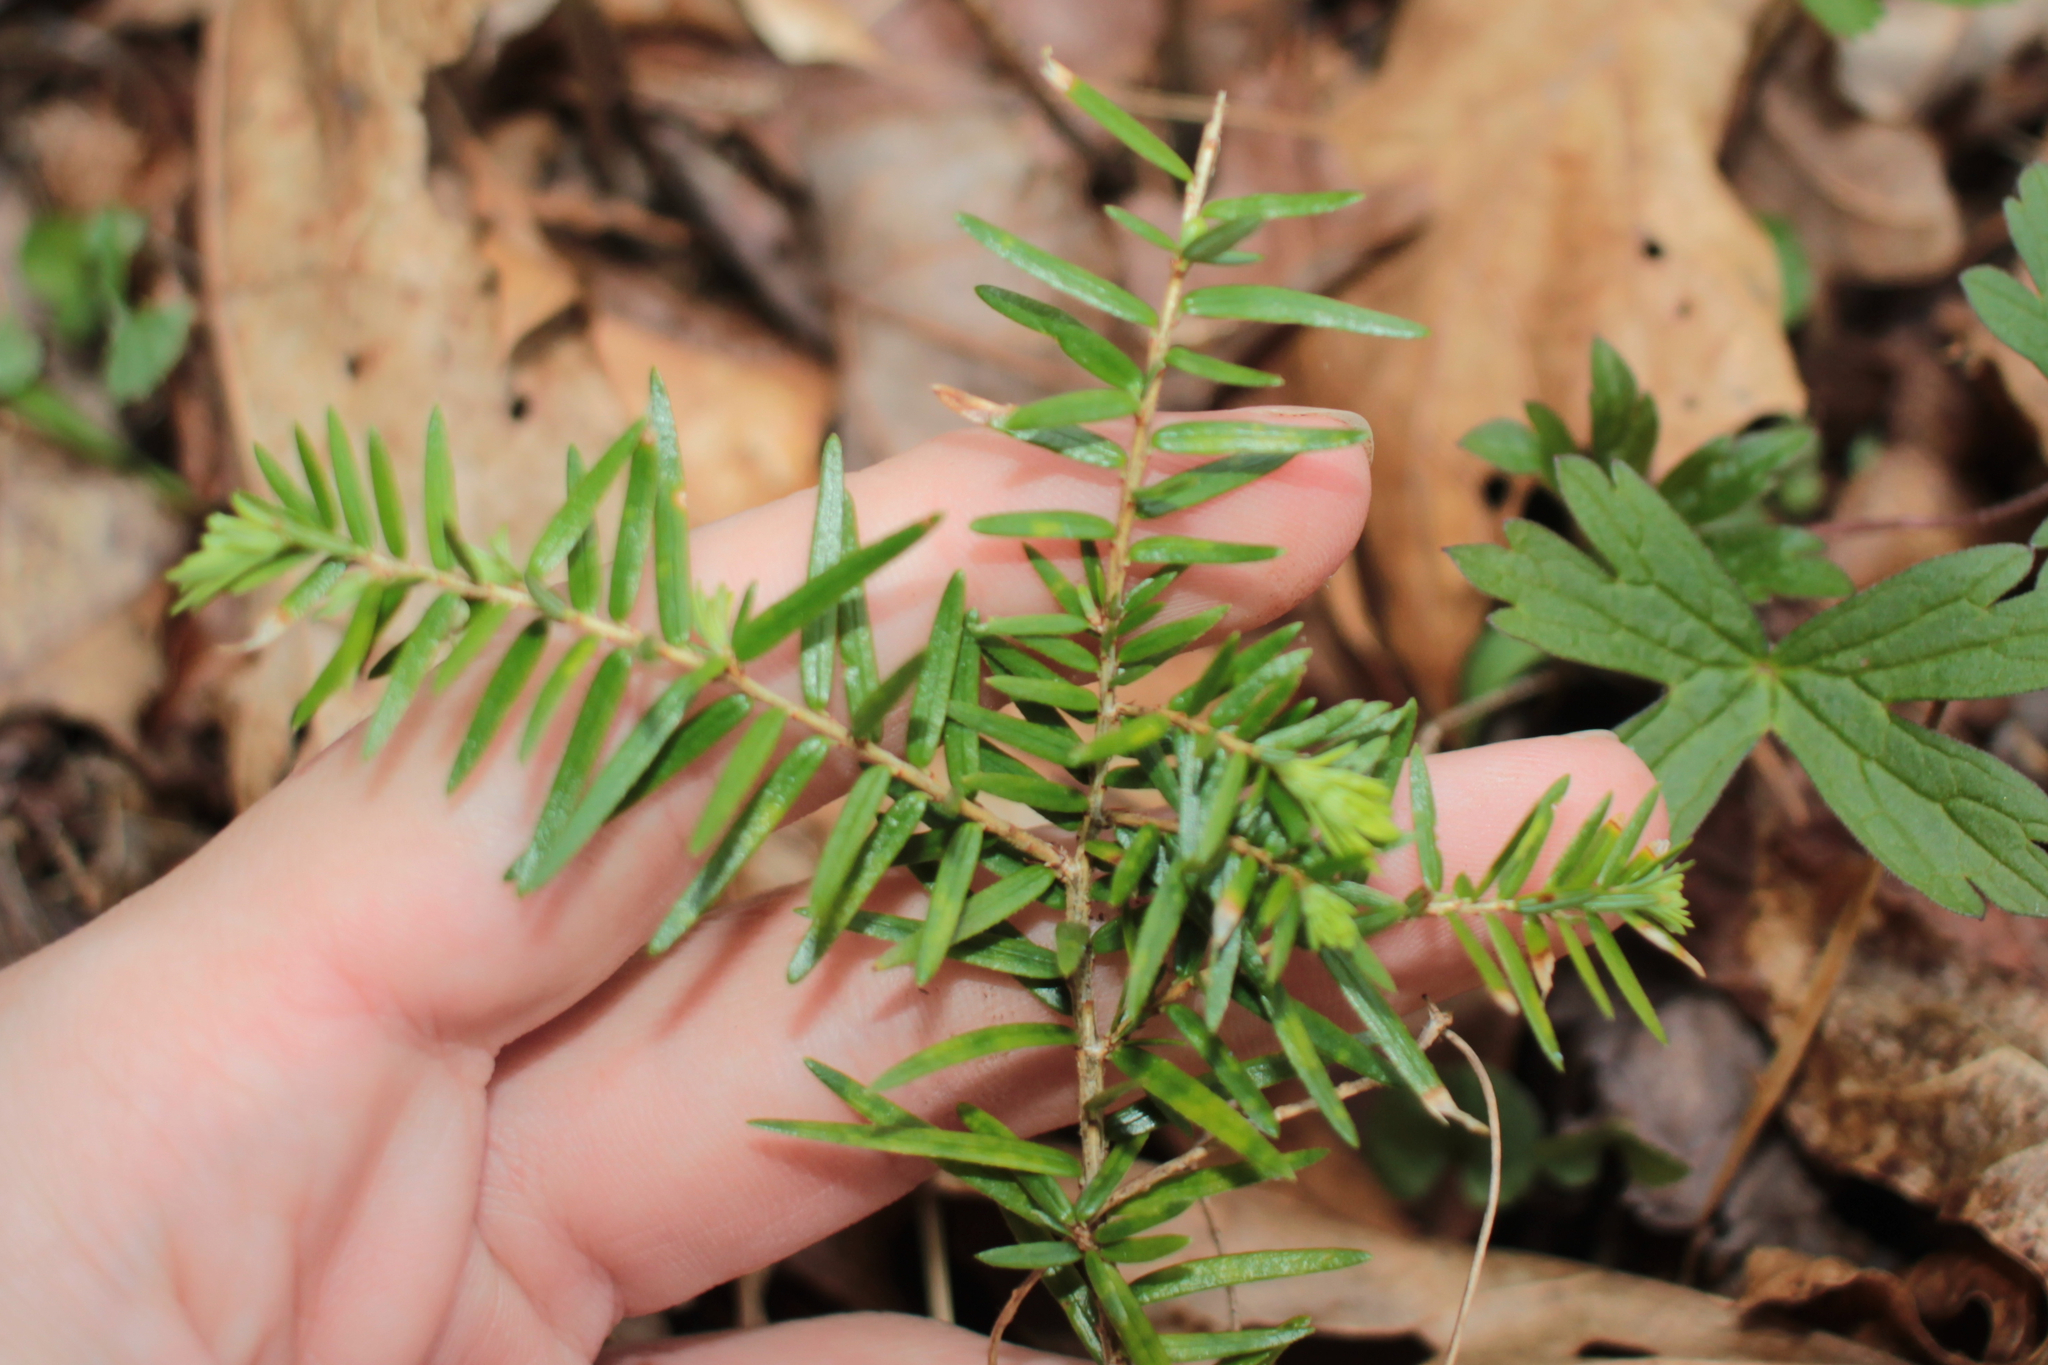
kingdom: Plantae
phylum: Tracheophyta
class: Pinopsida
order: Pinales
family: Pinaceae
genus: Tsuga
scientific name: Tsuga canadensis
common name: Eastern hemlock
